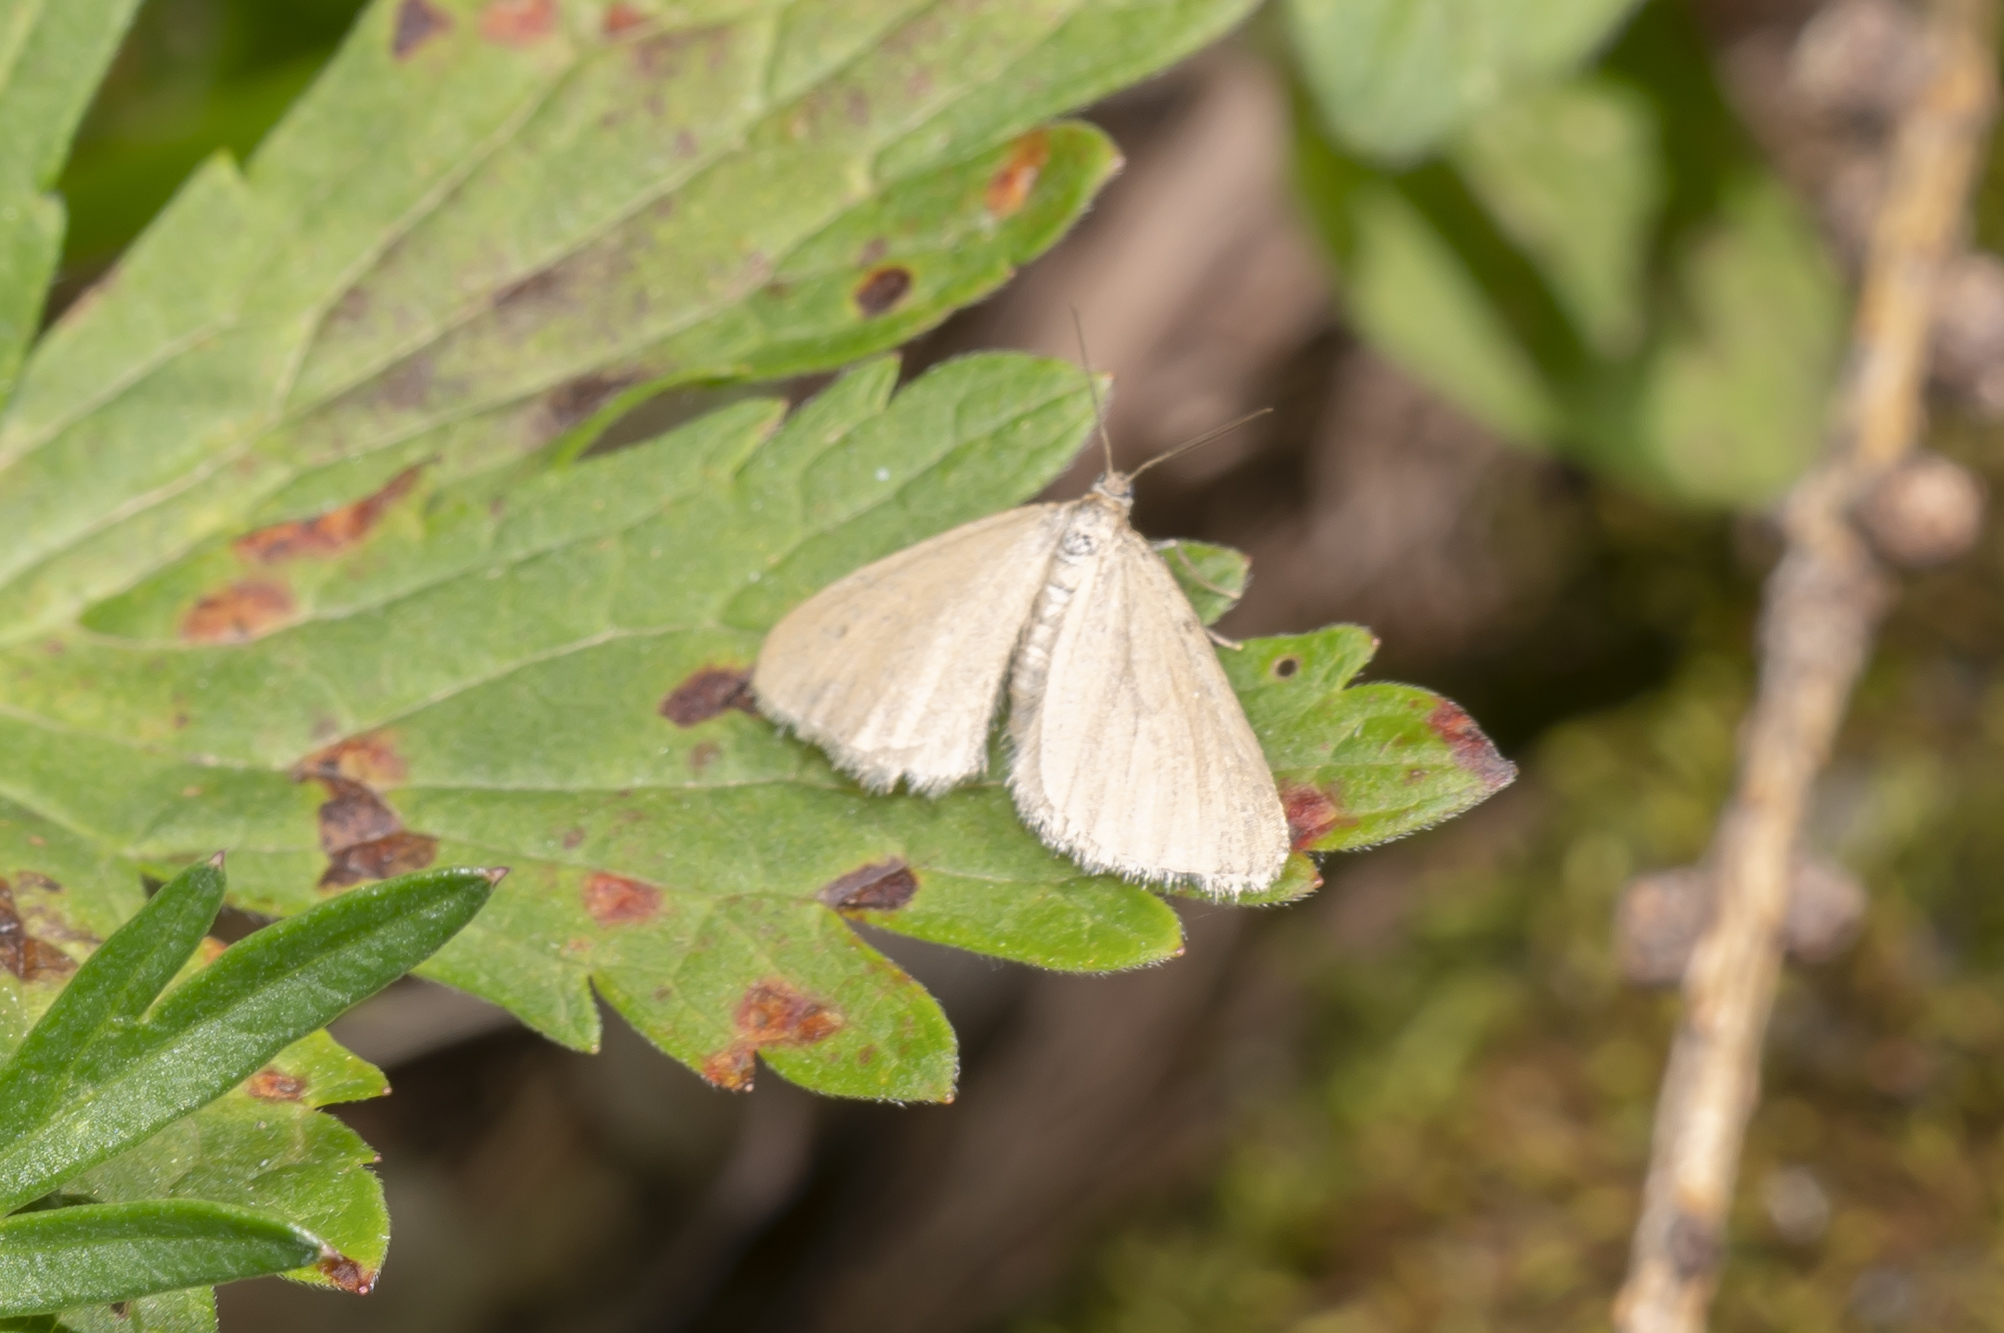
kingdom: Animalia
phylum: Arthropoda
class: Insecta
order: Lepidoptera
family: Geometridae
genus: Minoa
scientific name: Minoa murinata
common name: Drab looper
